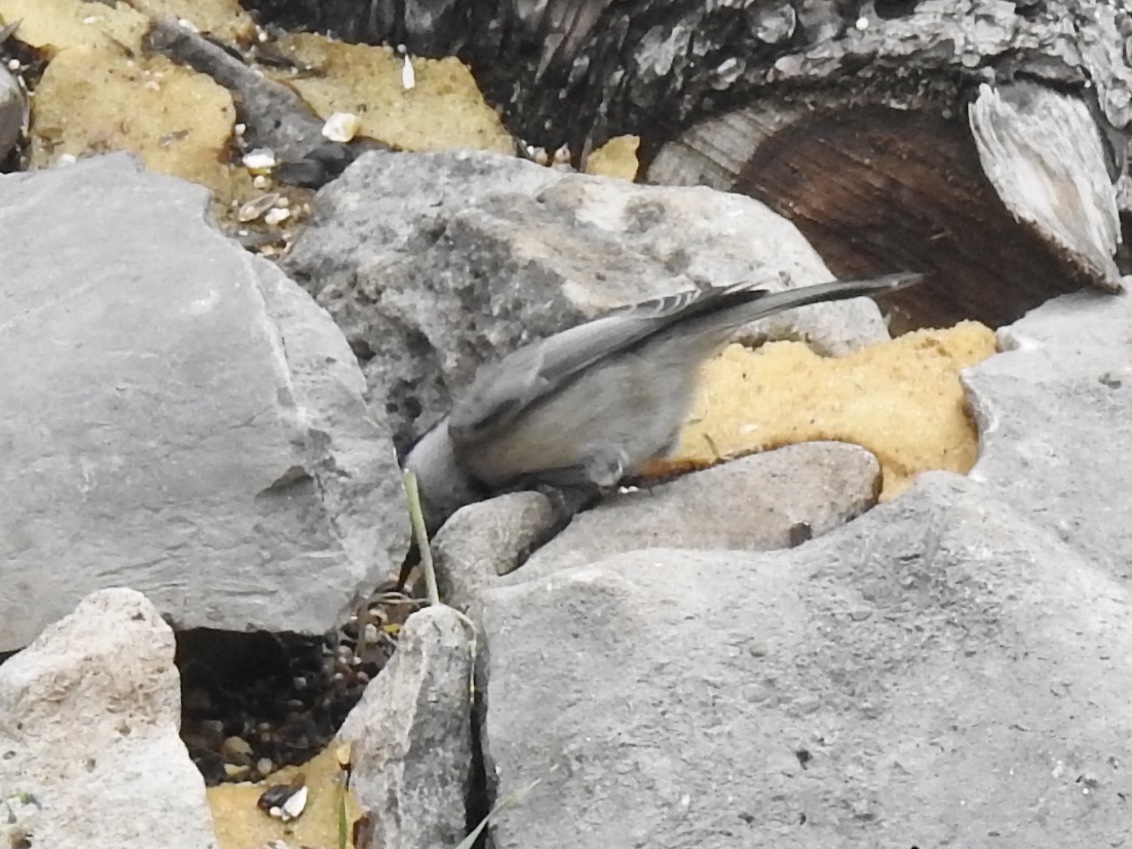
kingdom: Animalia
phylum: Chordata
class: Aves
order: Passeriformes
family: Paridae
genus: Poecile
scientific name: Poecile gambeli
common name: Mountain chickadee
